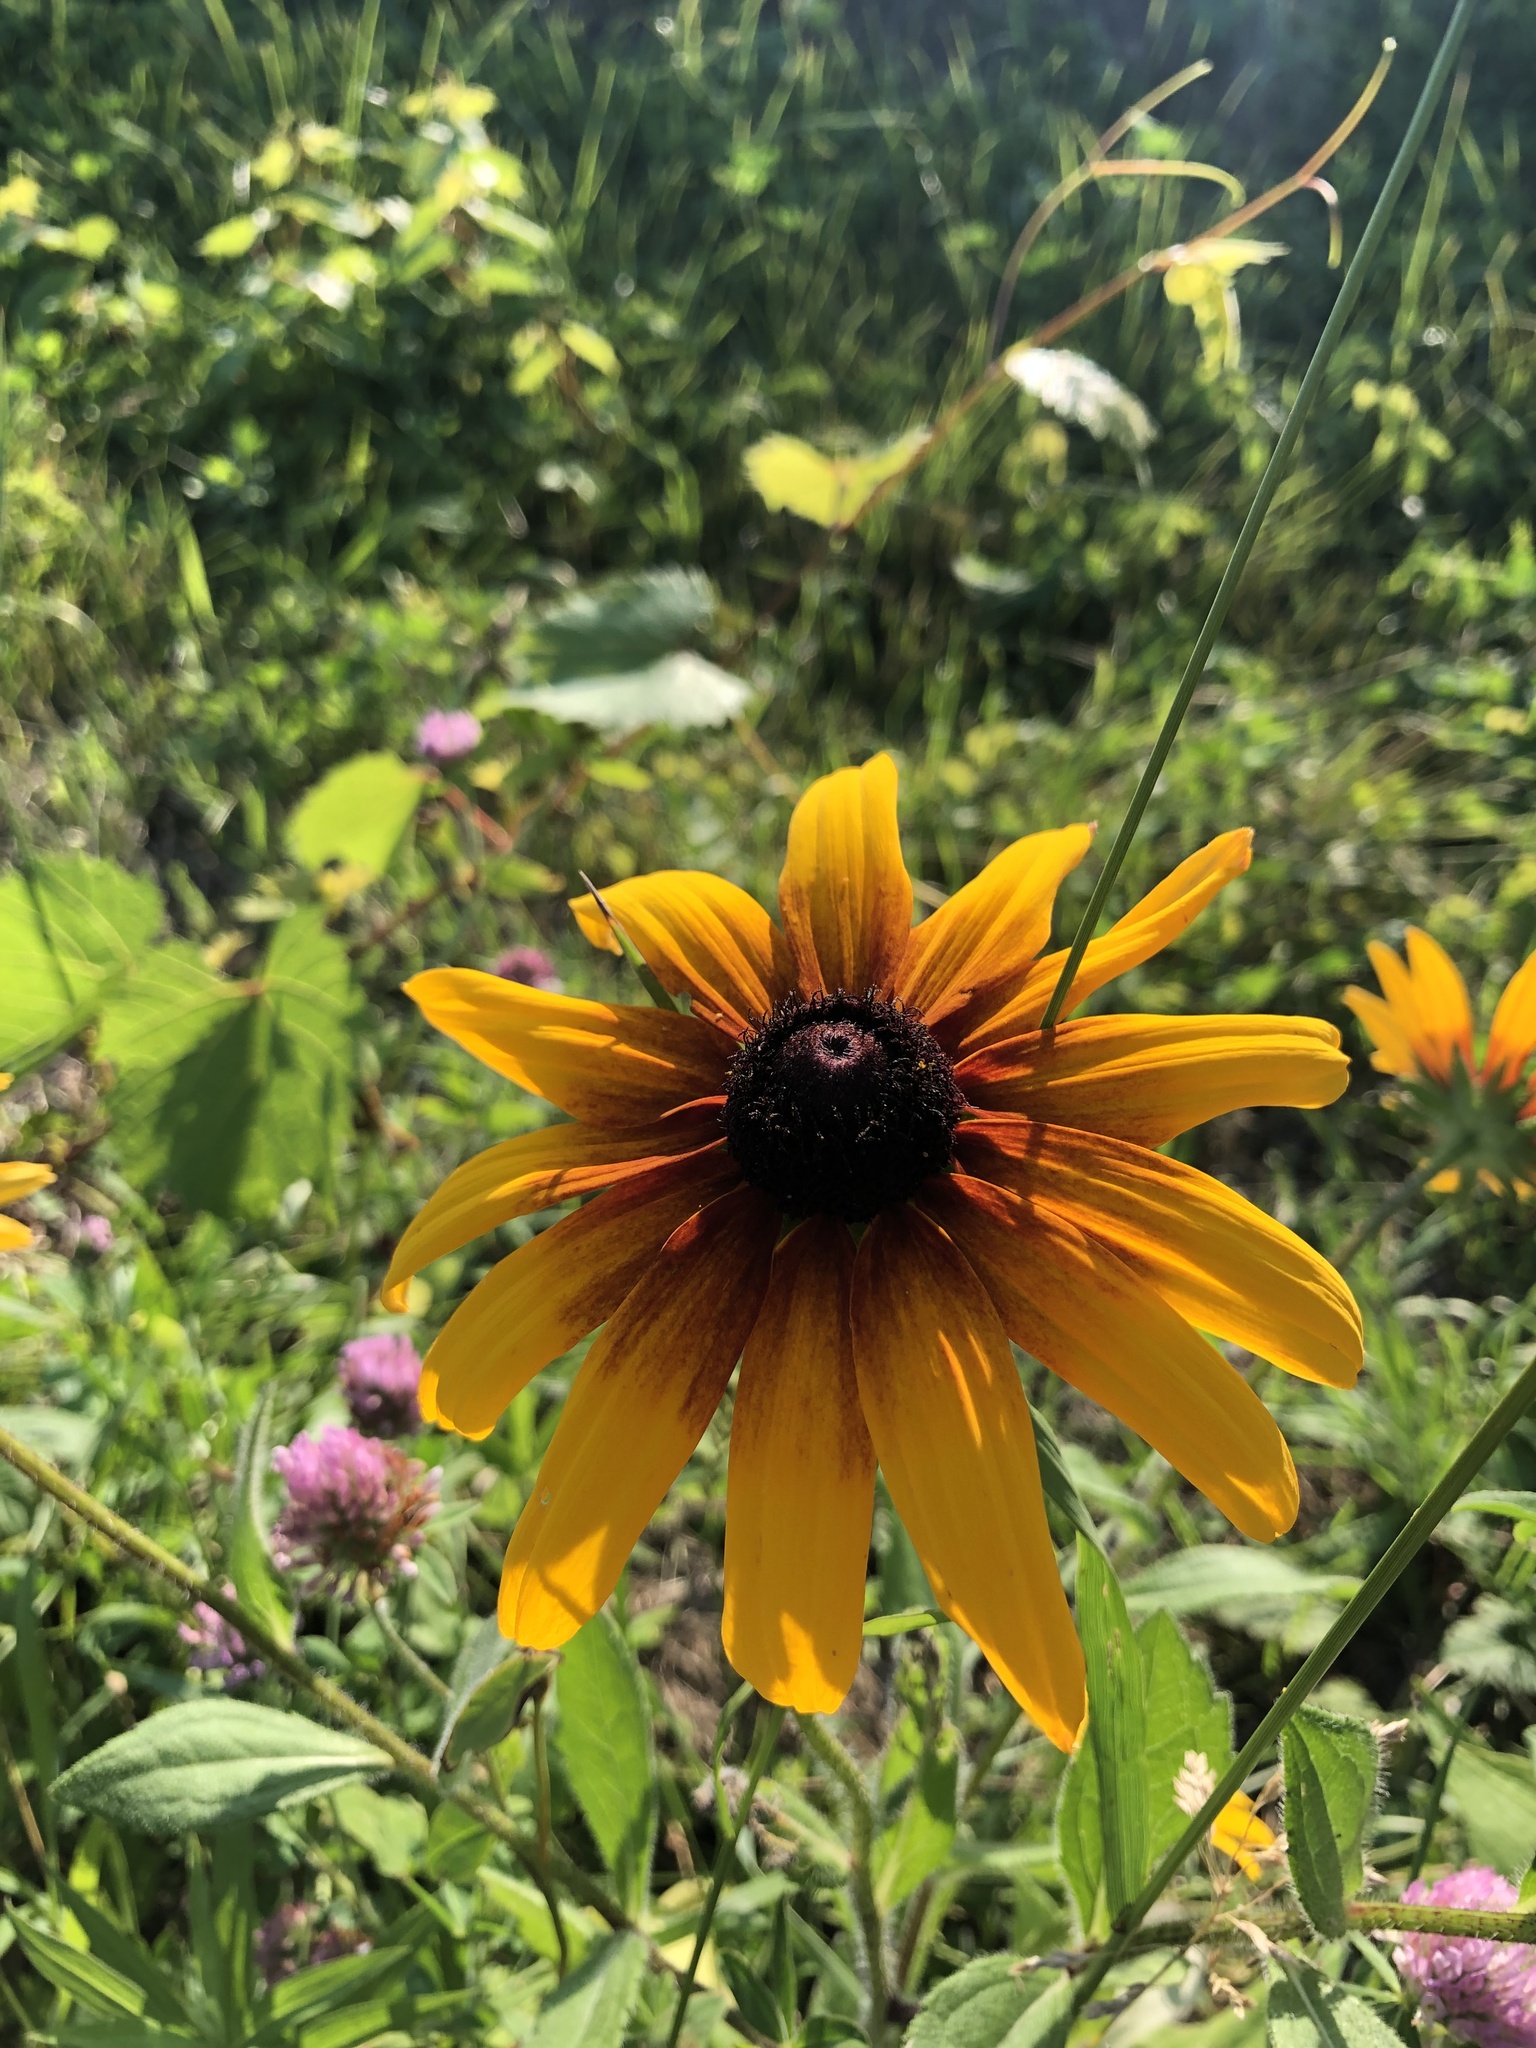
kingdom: Plantae
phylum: Tracheophyta
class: Magnoliopsida
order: Asterales
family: Asteraceae
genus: Rudbeckia
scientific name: Rudbeckia hirta
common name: Black-eyed-susan
